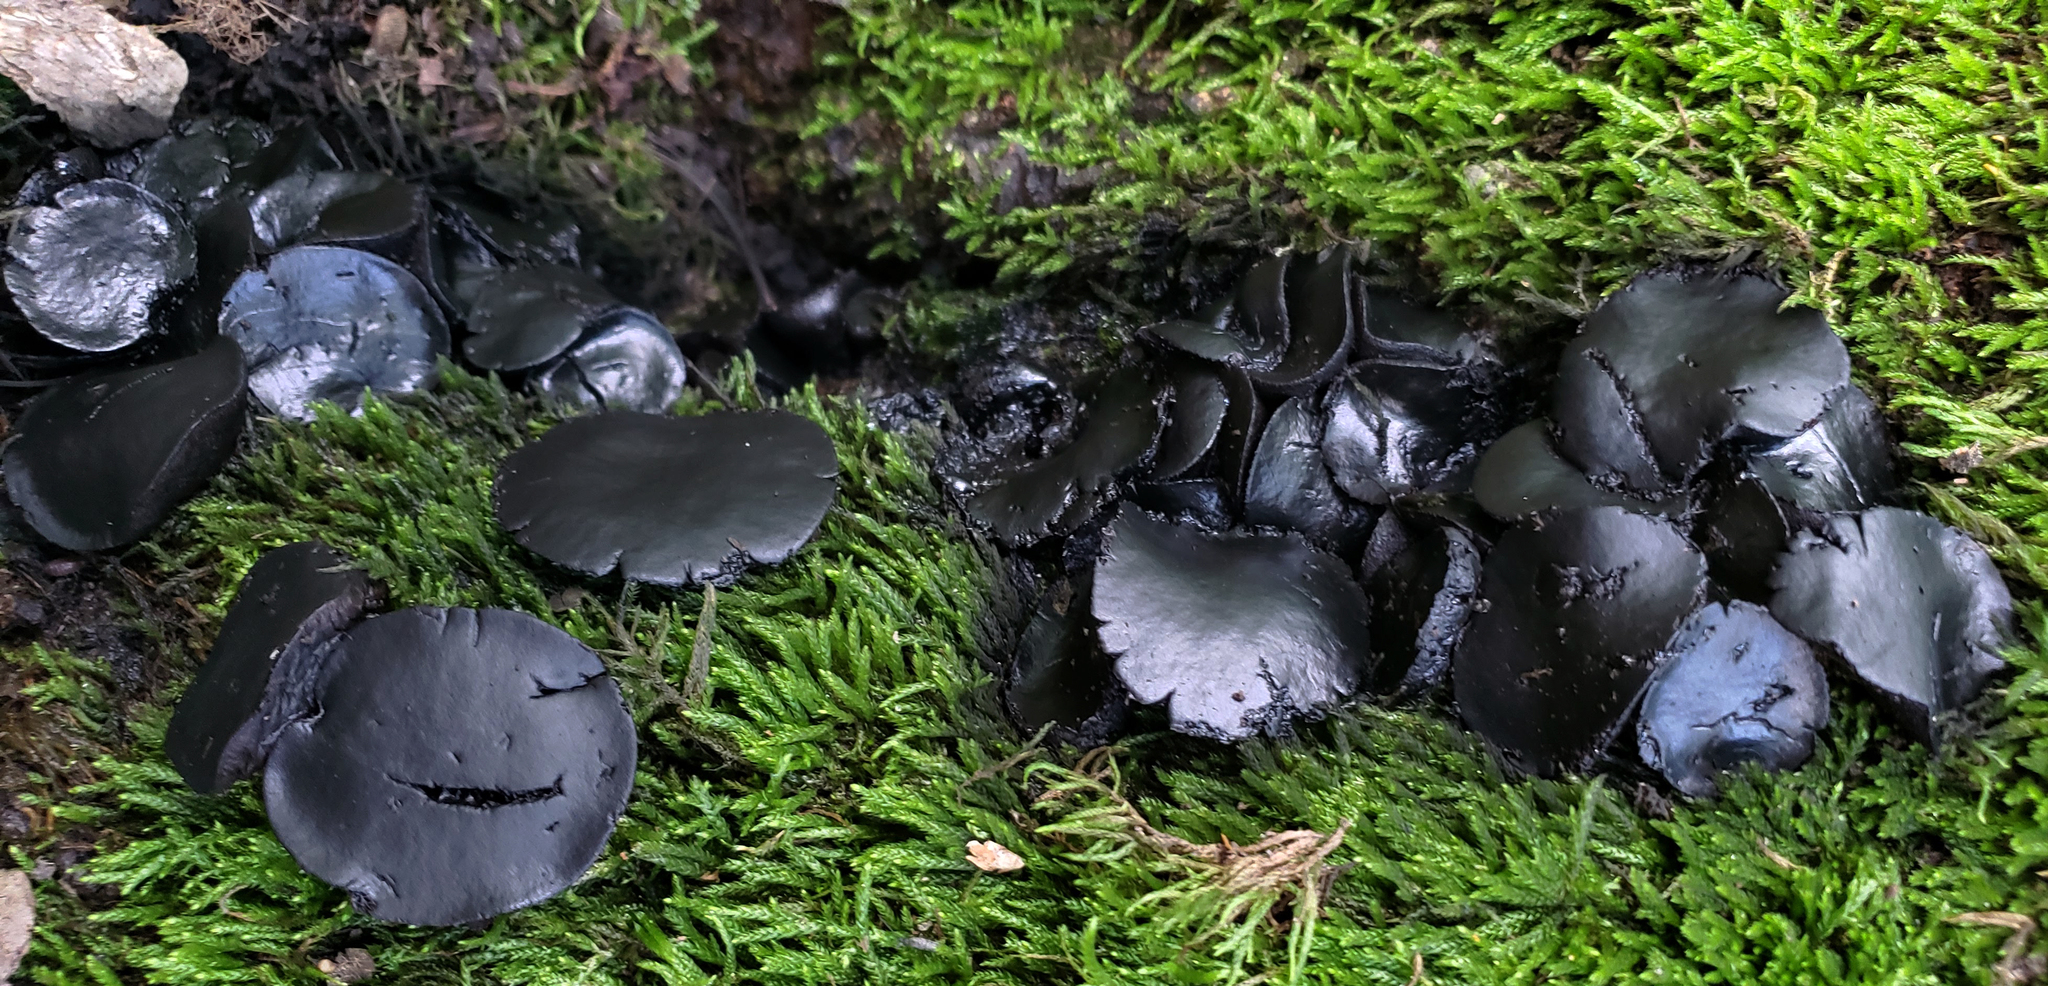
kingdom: Fungi
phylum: Ascomycota
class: Leotiomycetes
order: Phacidiales
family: Phacidiaceae
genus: Bulgaria
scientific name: Bulgaria inquinans
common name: Black bulgar
